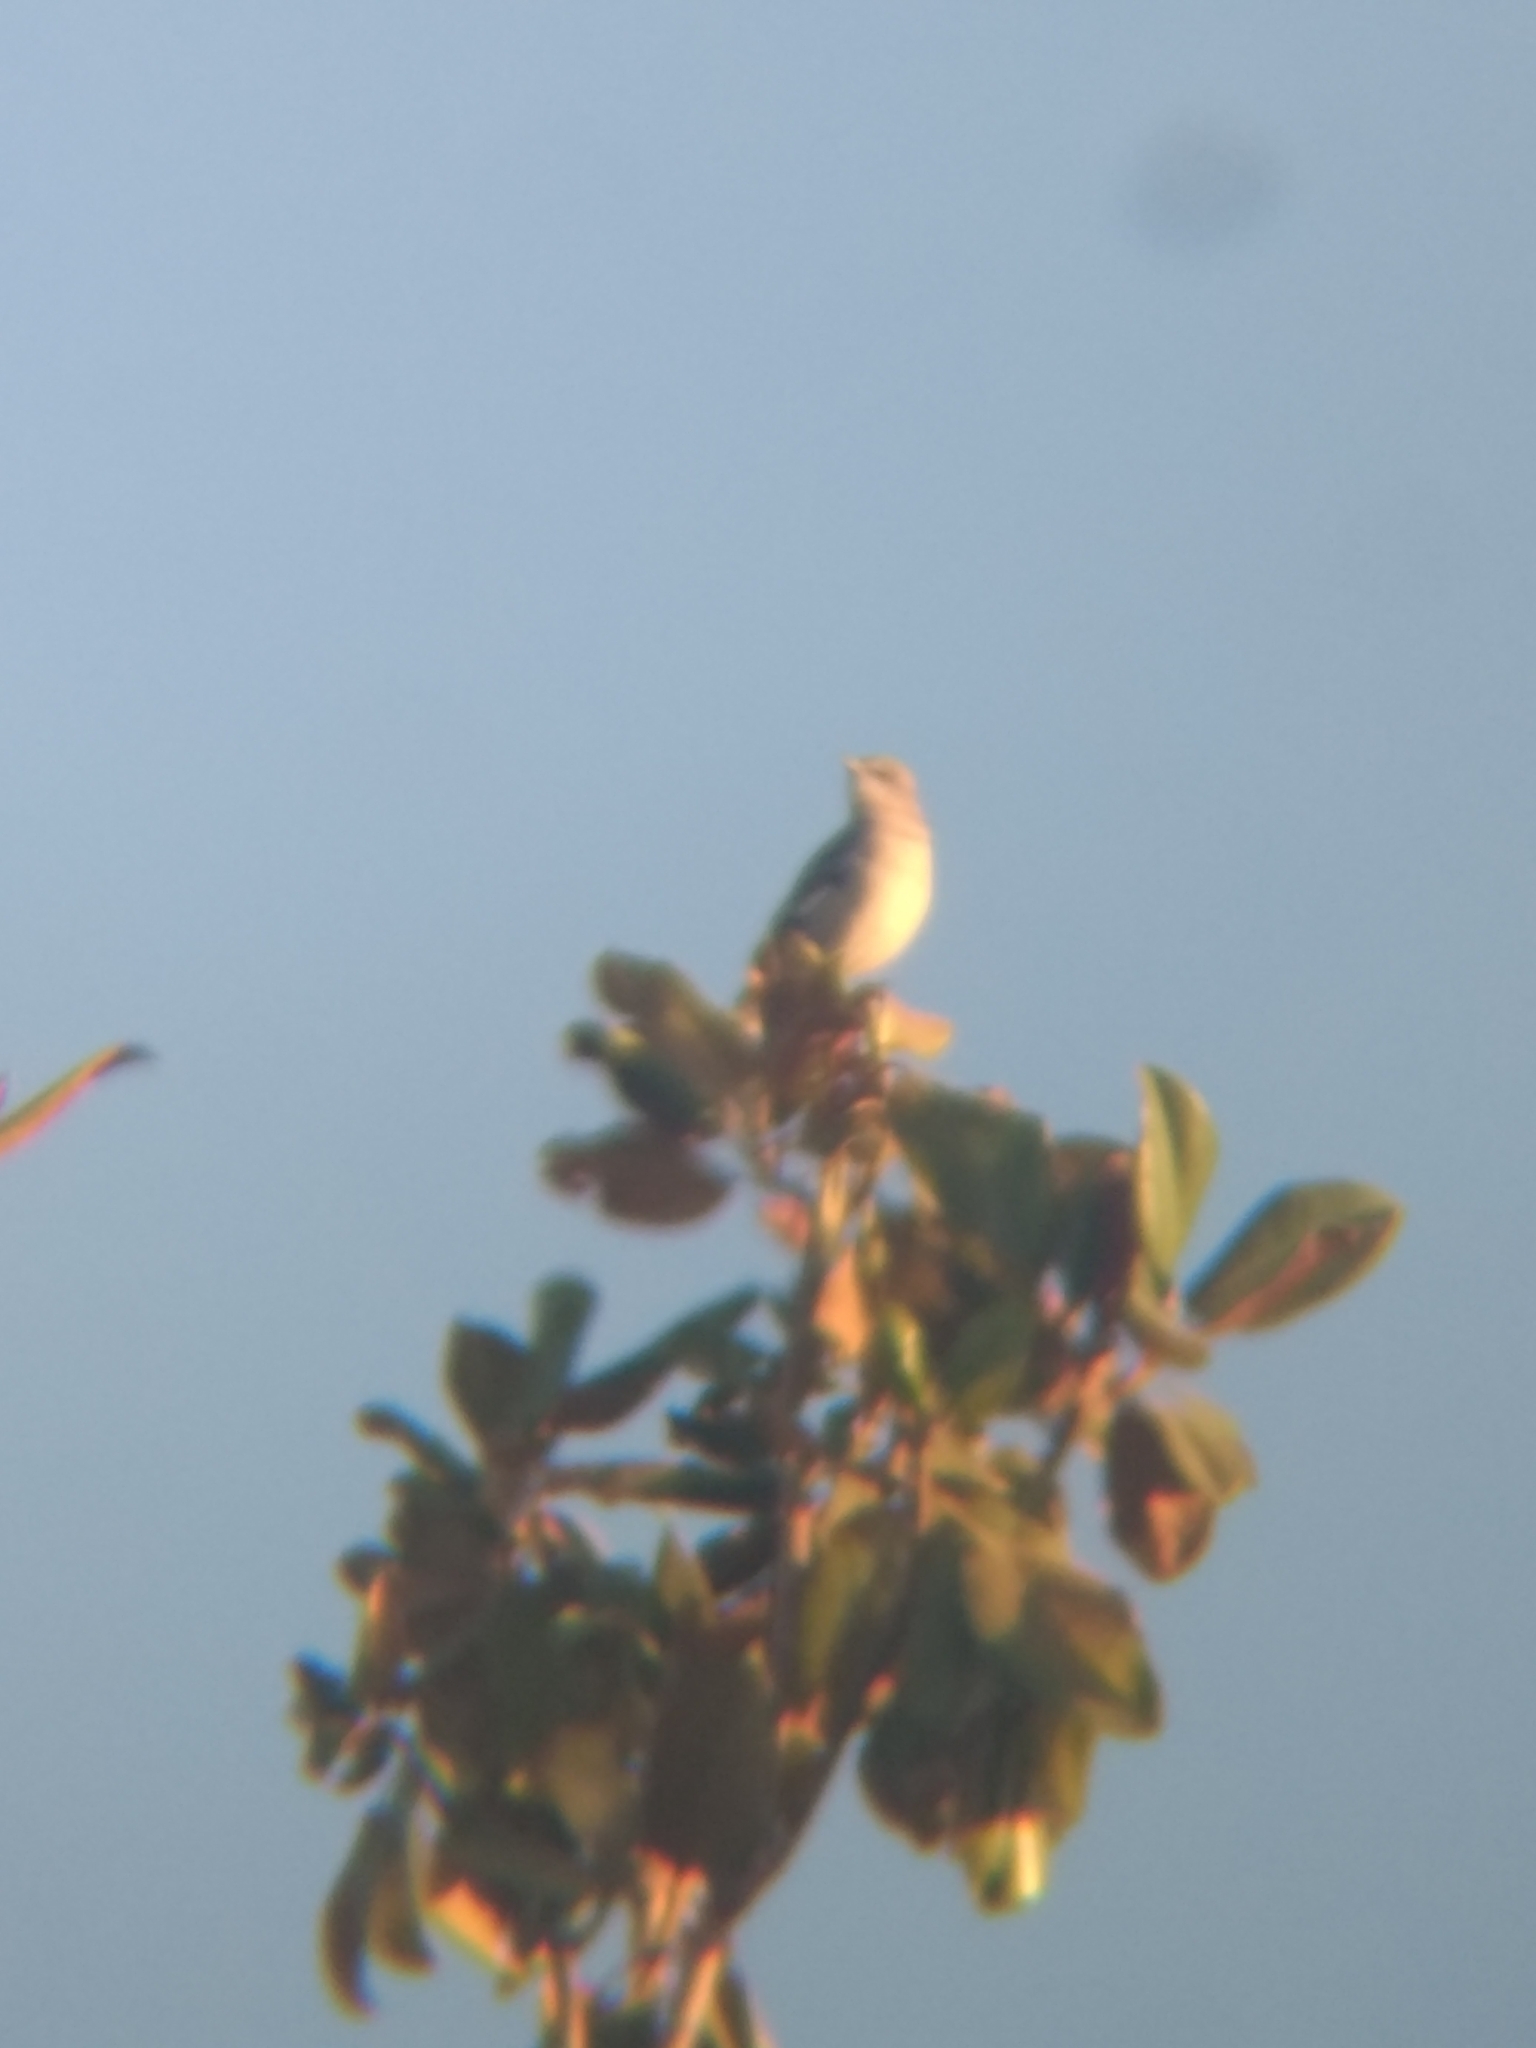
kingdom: Animalia
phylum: Chordata
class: Aves
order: Passeriformes
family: Mimidae
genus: Mimus
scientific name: Mimus polyglottos
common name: Northern mockingbird
